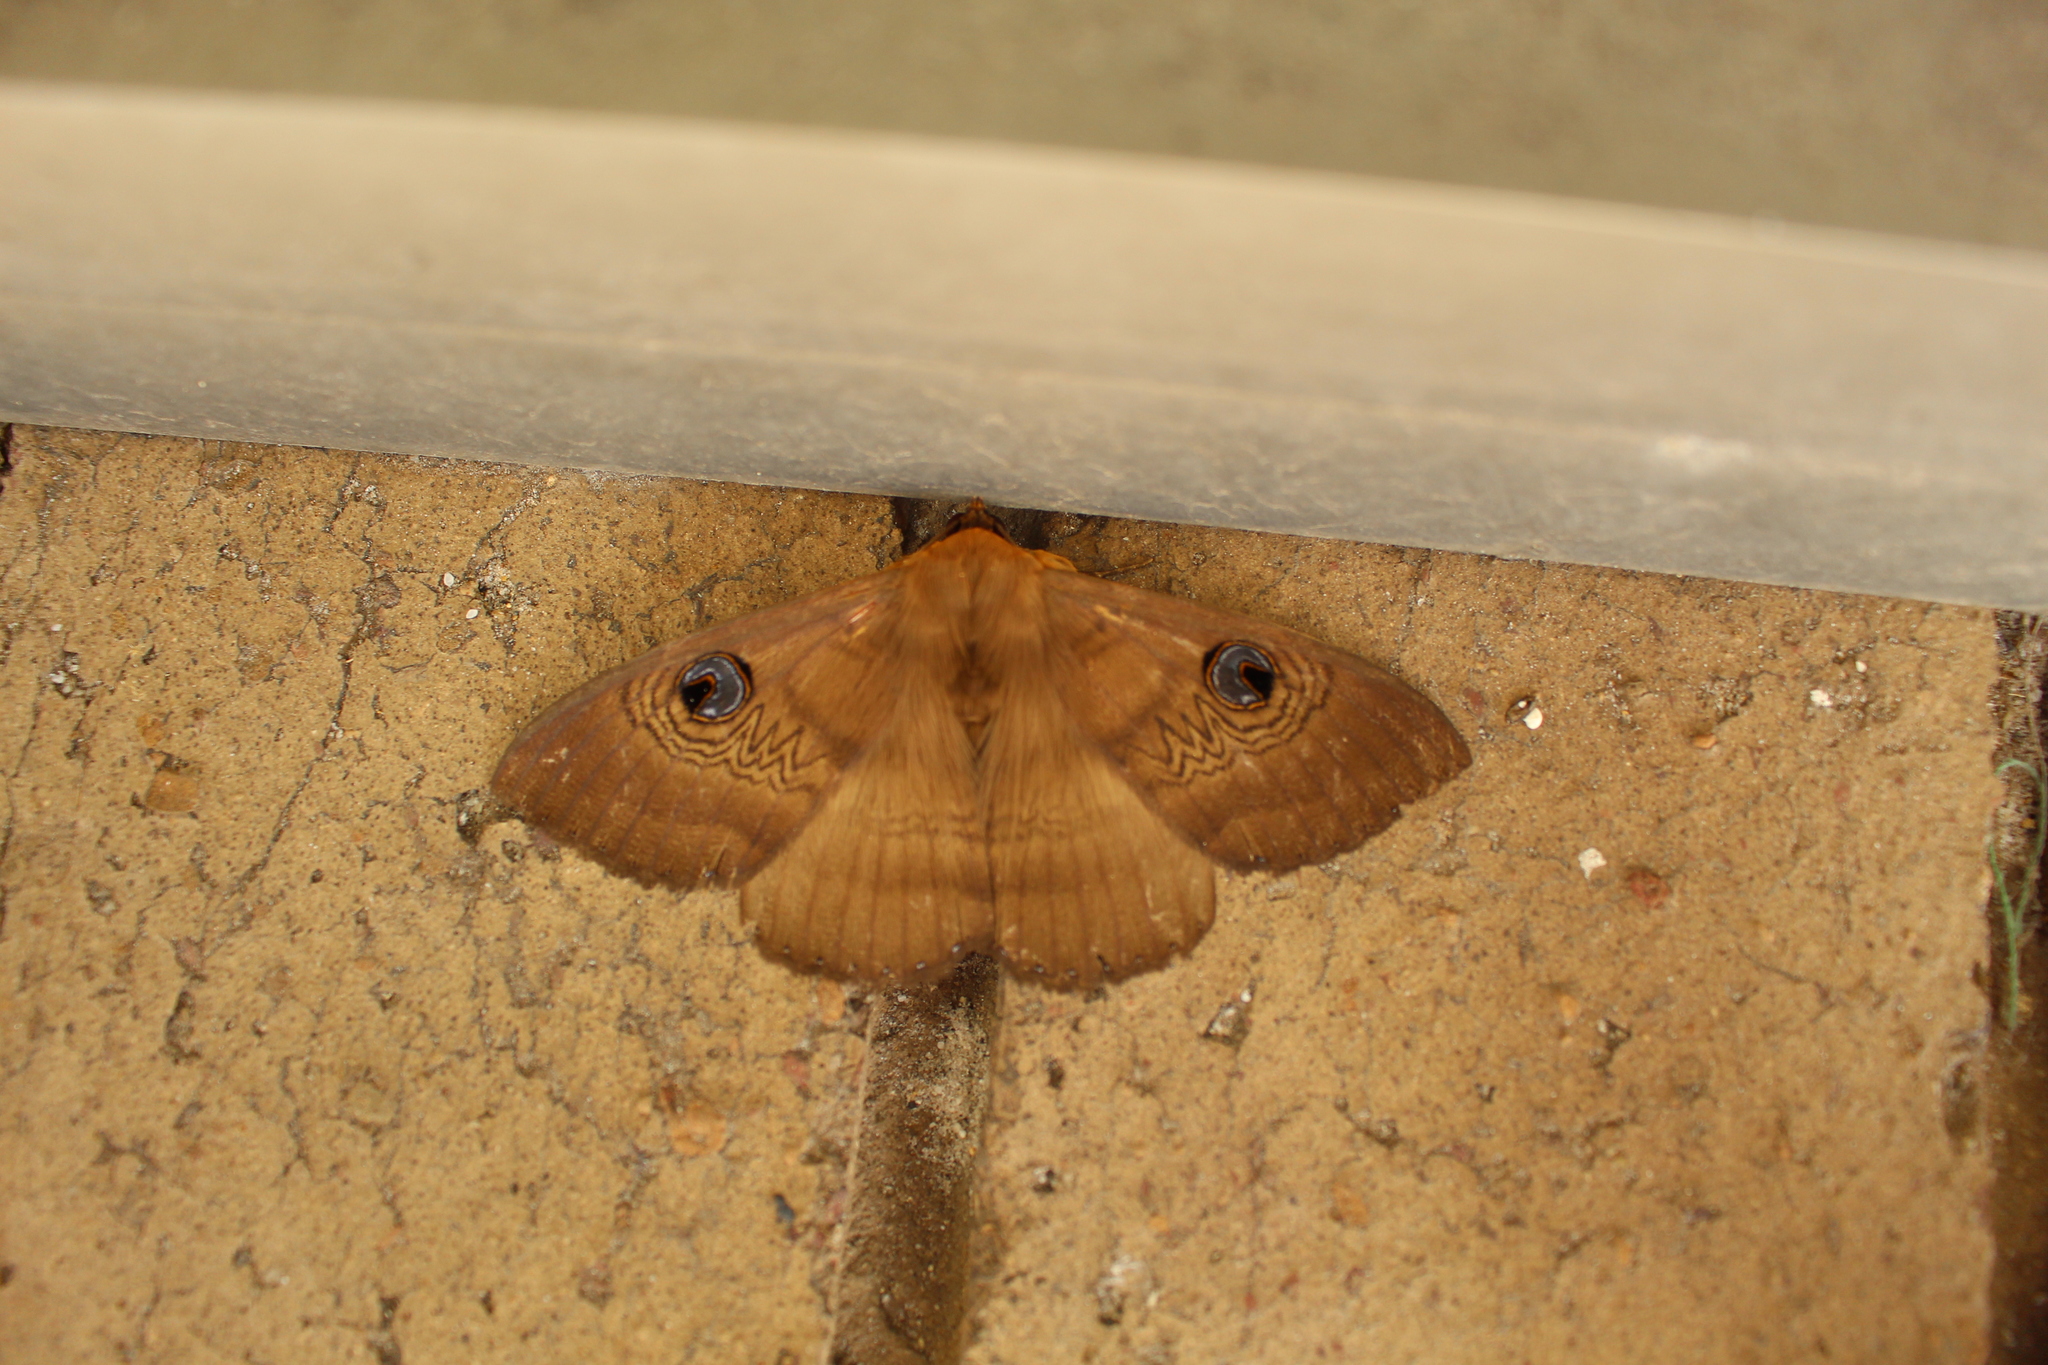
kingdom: Animalia
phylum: Arthropoda
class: Insecta
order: Lepidoptera
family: Erebidae
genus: Dasypodia
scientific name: Dasypodia selenophora
